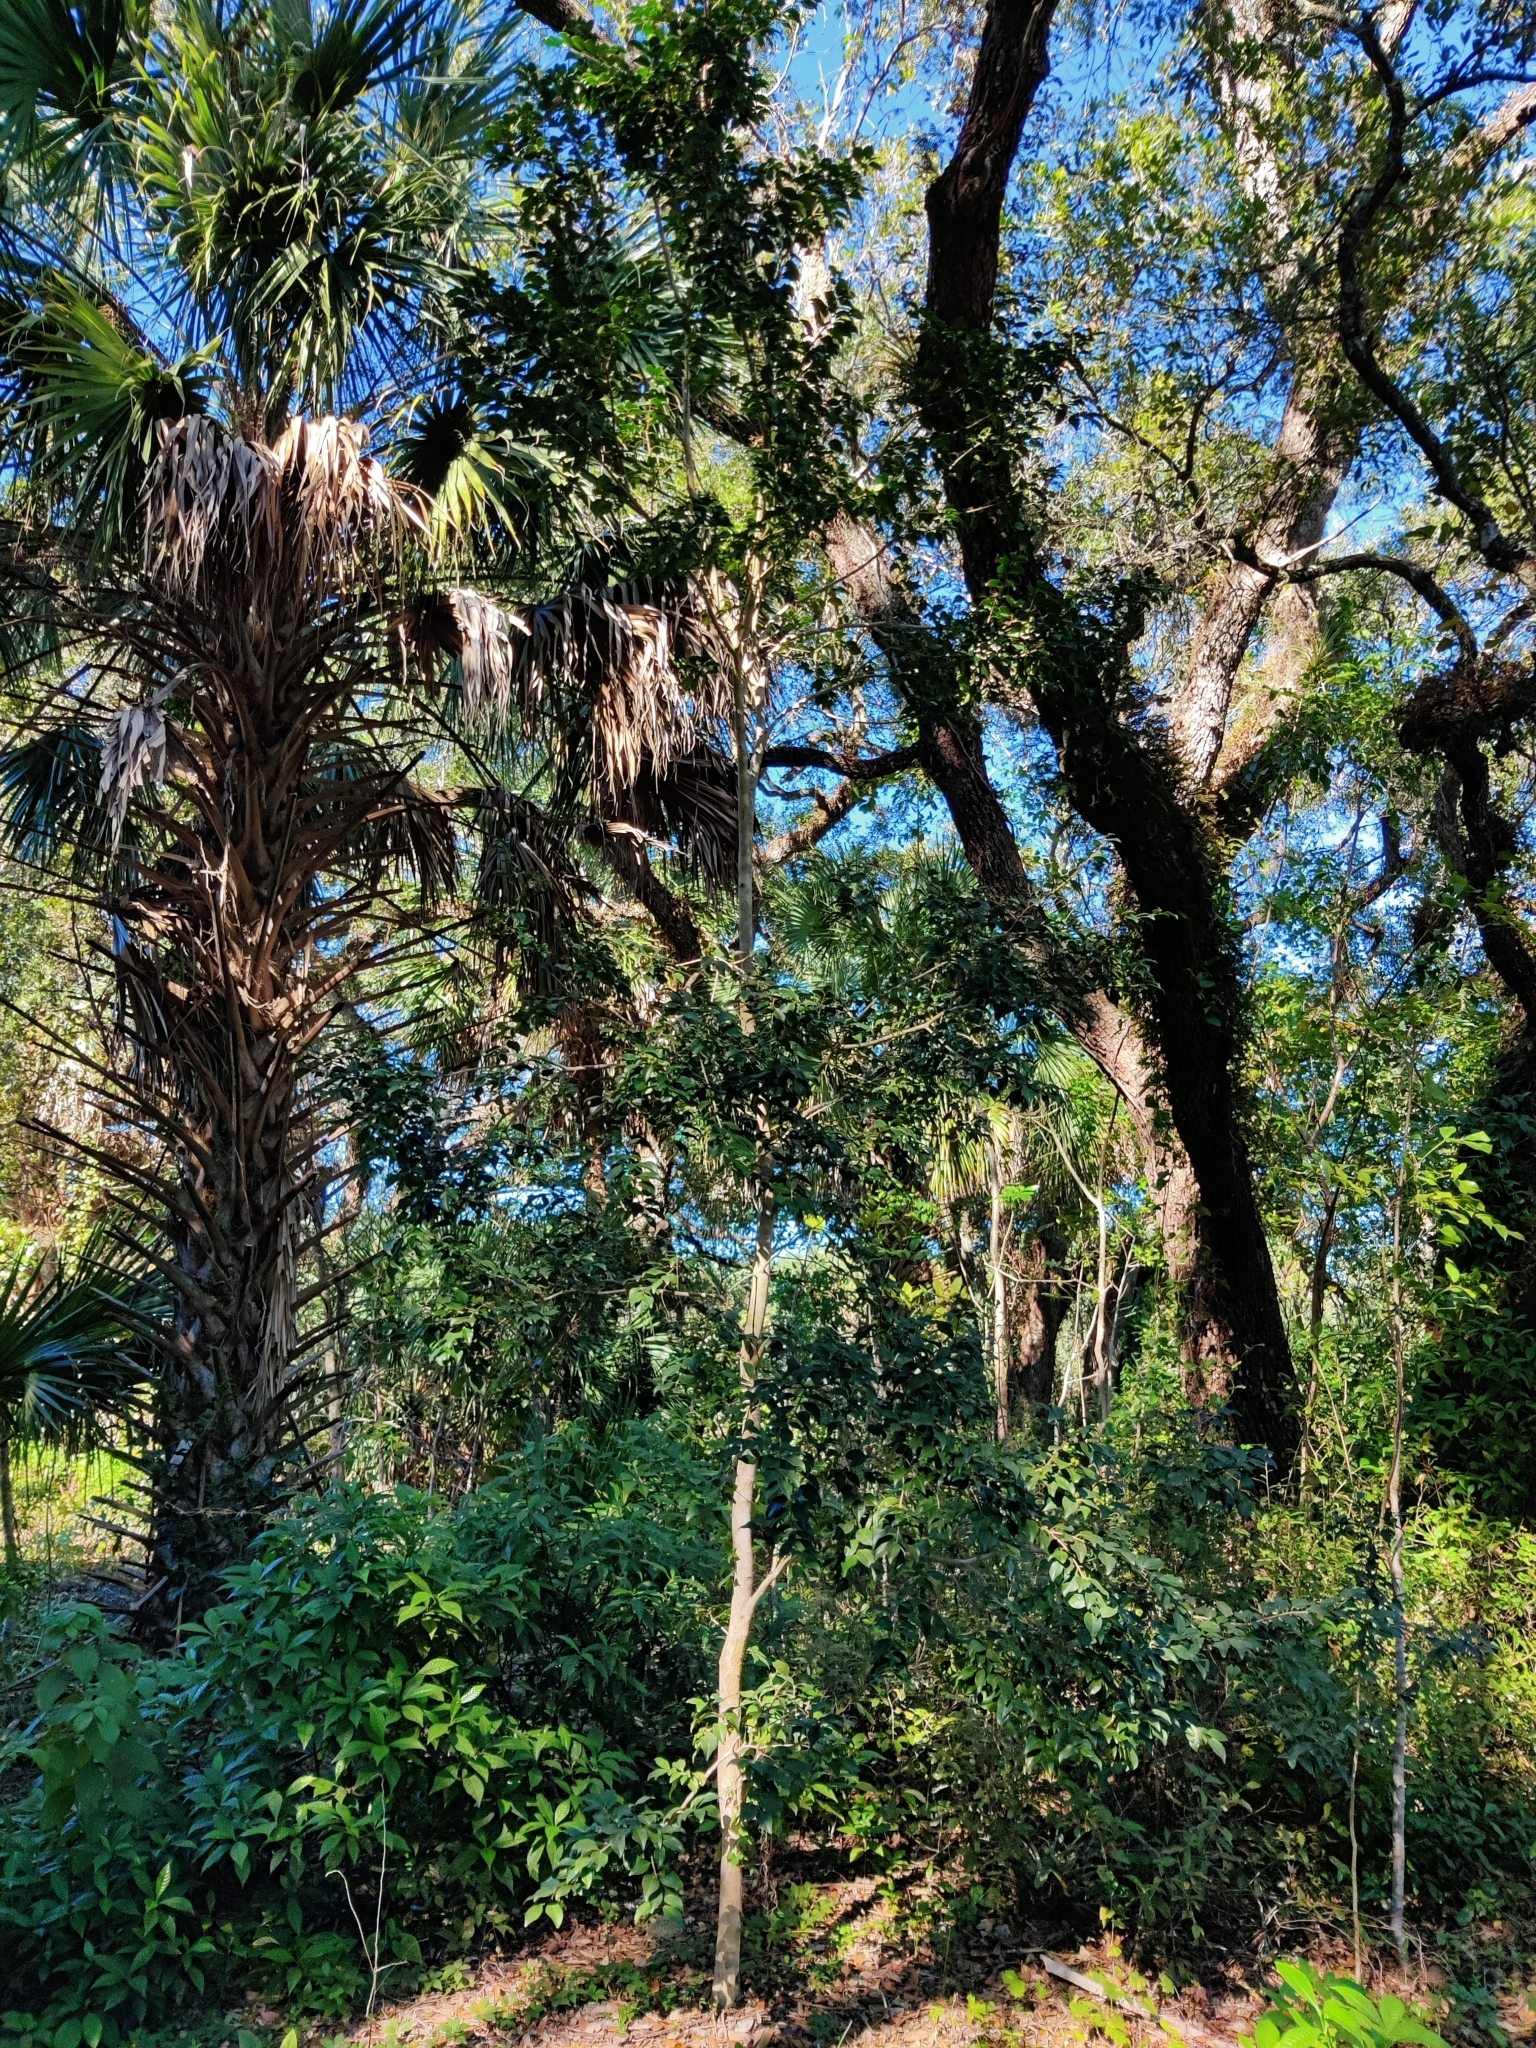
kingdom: Plantae
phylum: Tracheophyta
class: Magnoliopsida
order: Myrtales
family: Myrtaceae
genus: Eugenia
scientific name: Eugenia axillaris
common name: Choaky berry
